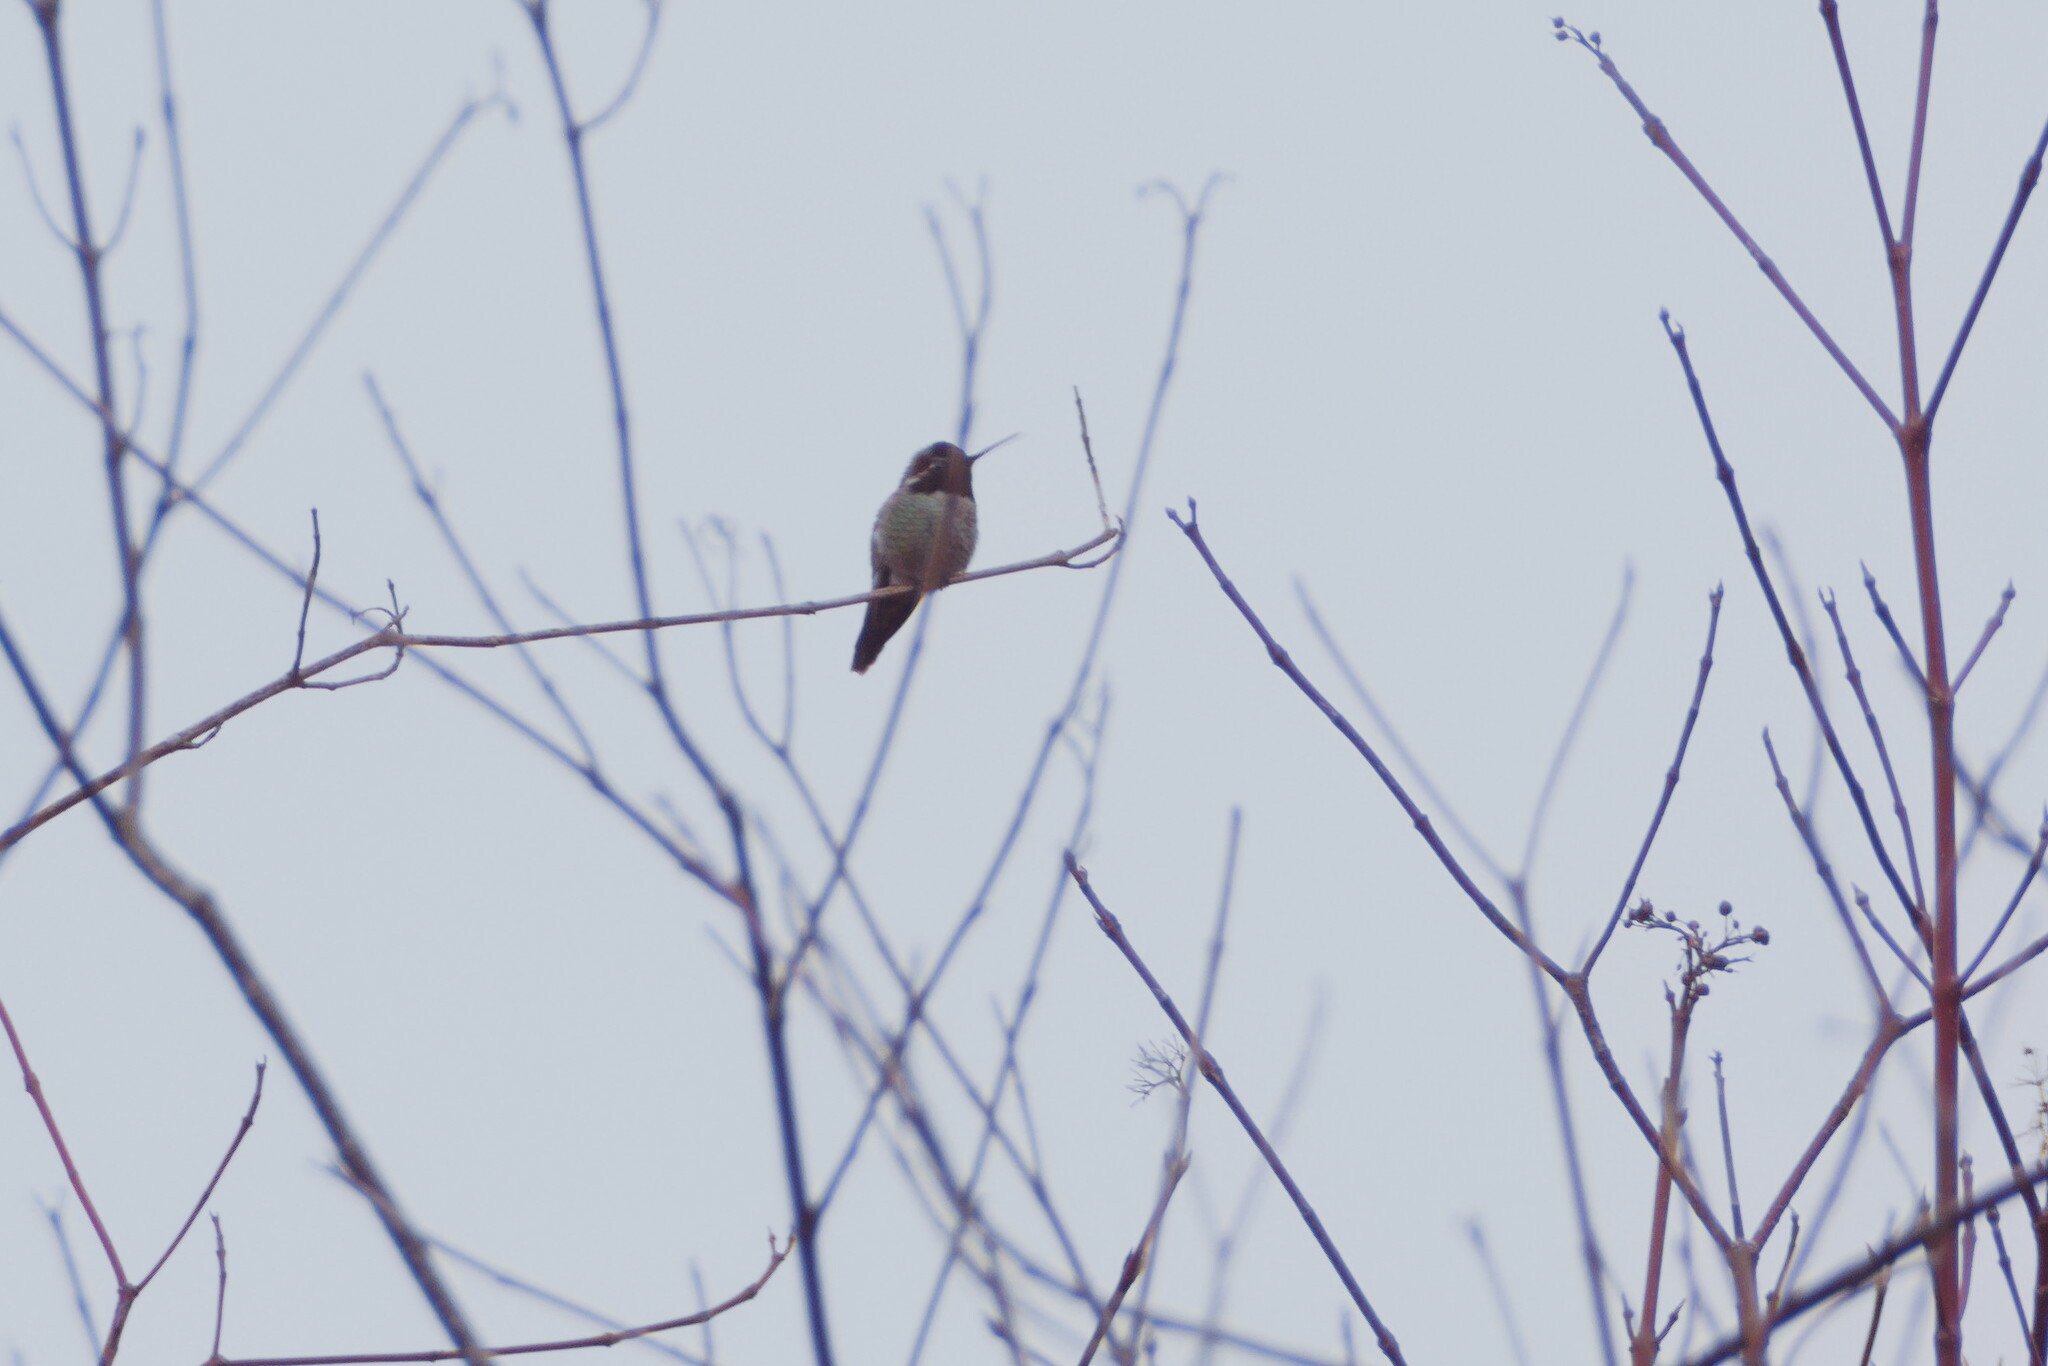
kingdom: Animalia
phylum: Chordata
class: Aves
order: Apodiformes
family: Trochilidae
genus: Calypte
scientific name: Calypte anna
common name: Anna's hummingbird
